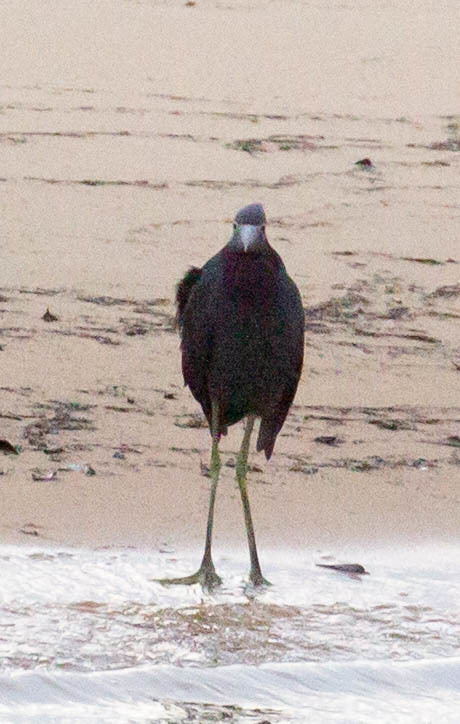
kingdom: Animalia
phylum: Chordata
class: Aves
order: Pelecaniformes
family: Ardeidae
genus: Egretta
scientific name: Egretta caerulea
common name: Little blue heron
